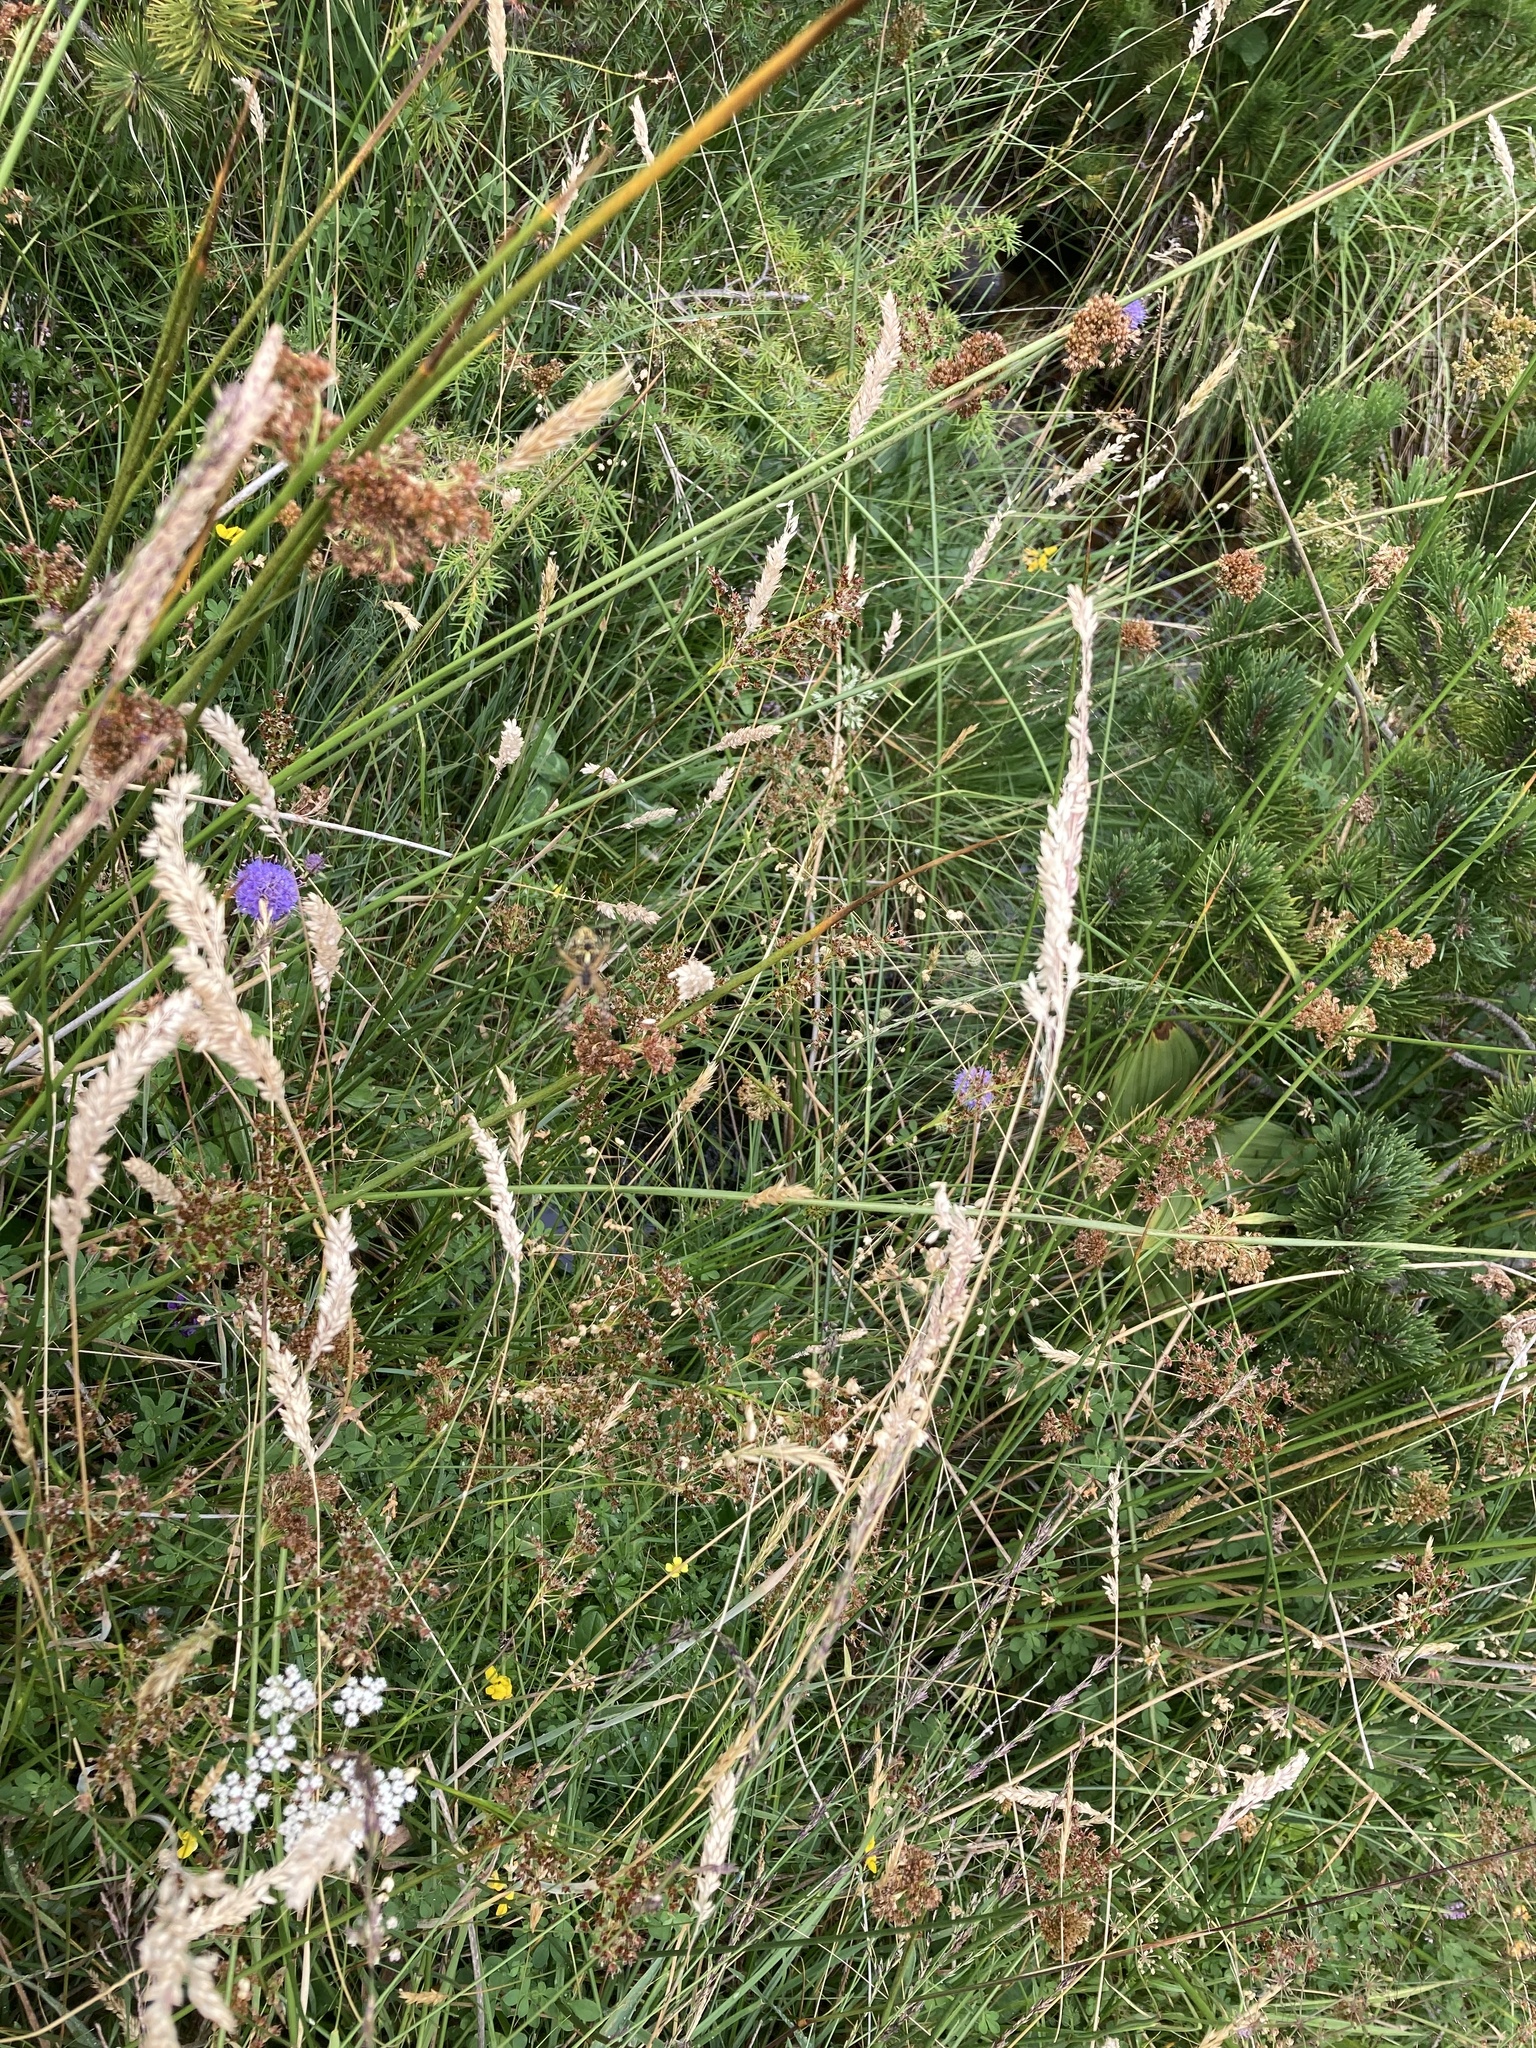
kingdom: Animalia
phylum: Arthropoda
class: Arachnida
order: Araneae
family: Araneidae
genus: Aculepeira
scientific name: Aculepeira ceropegia
